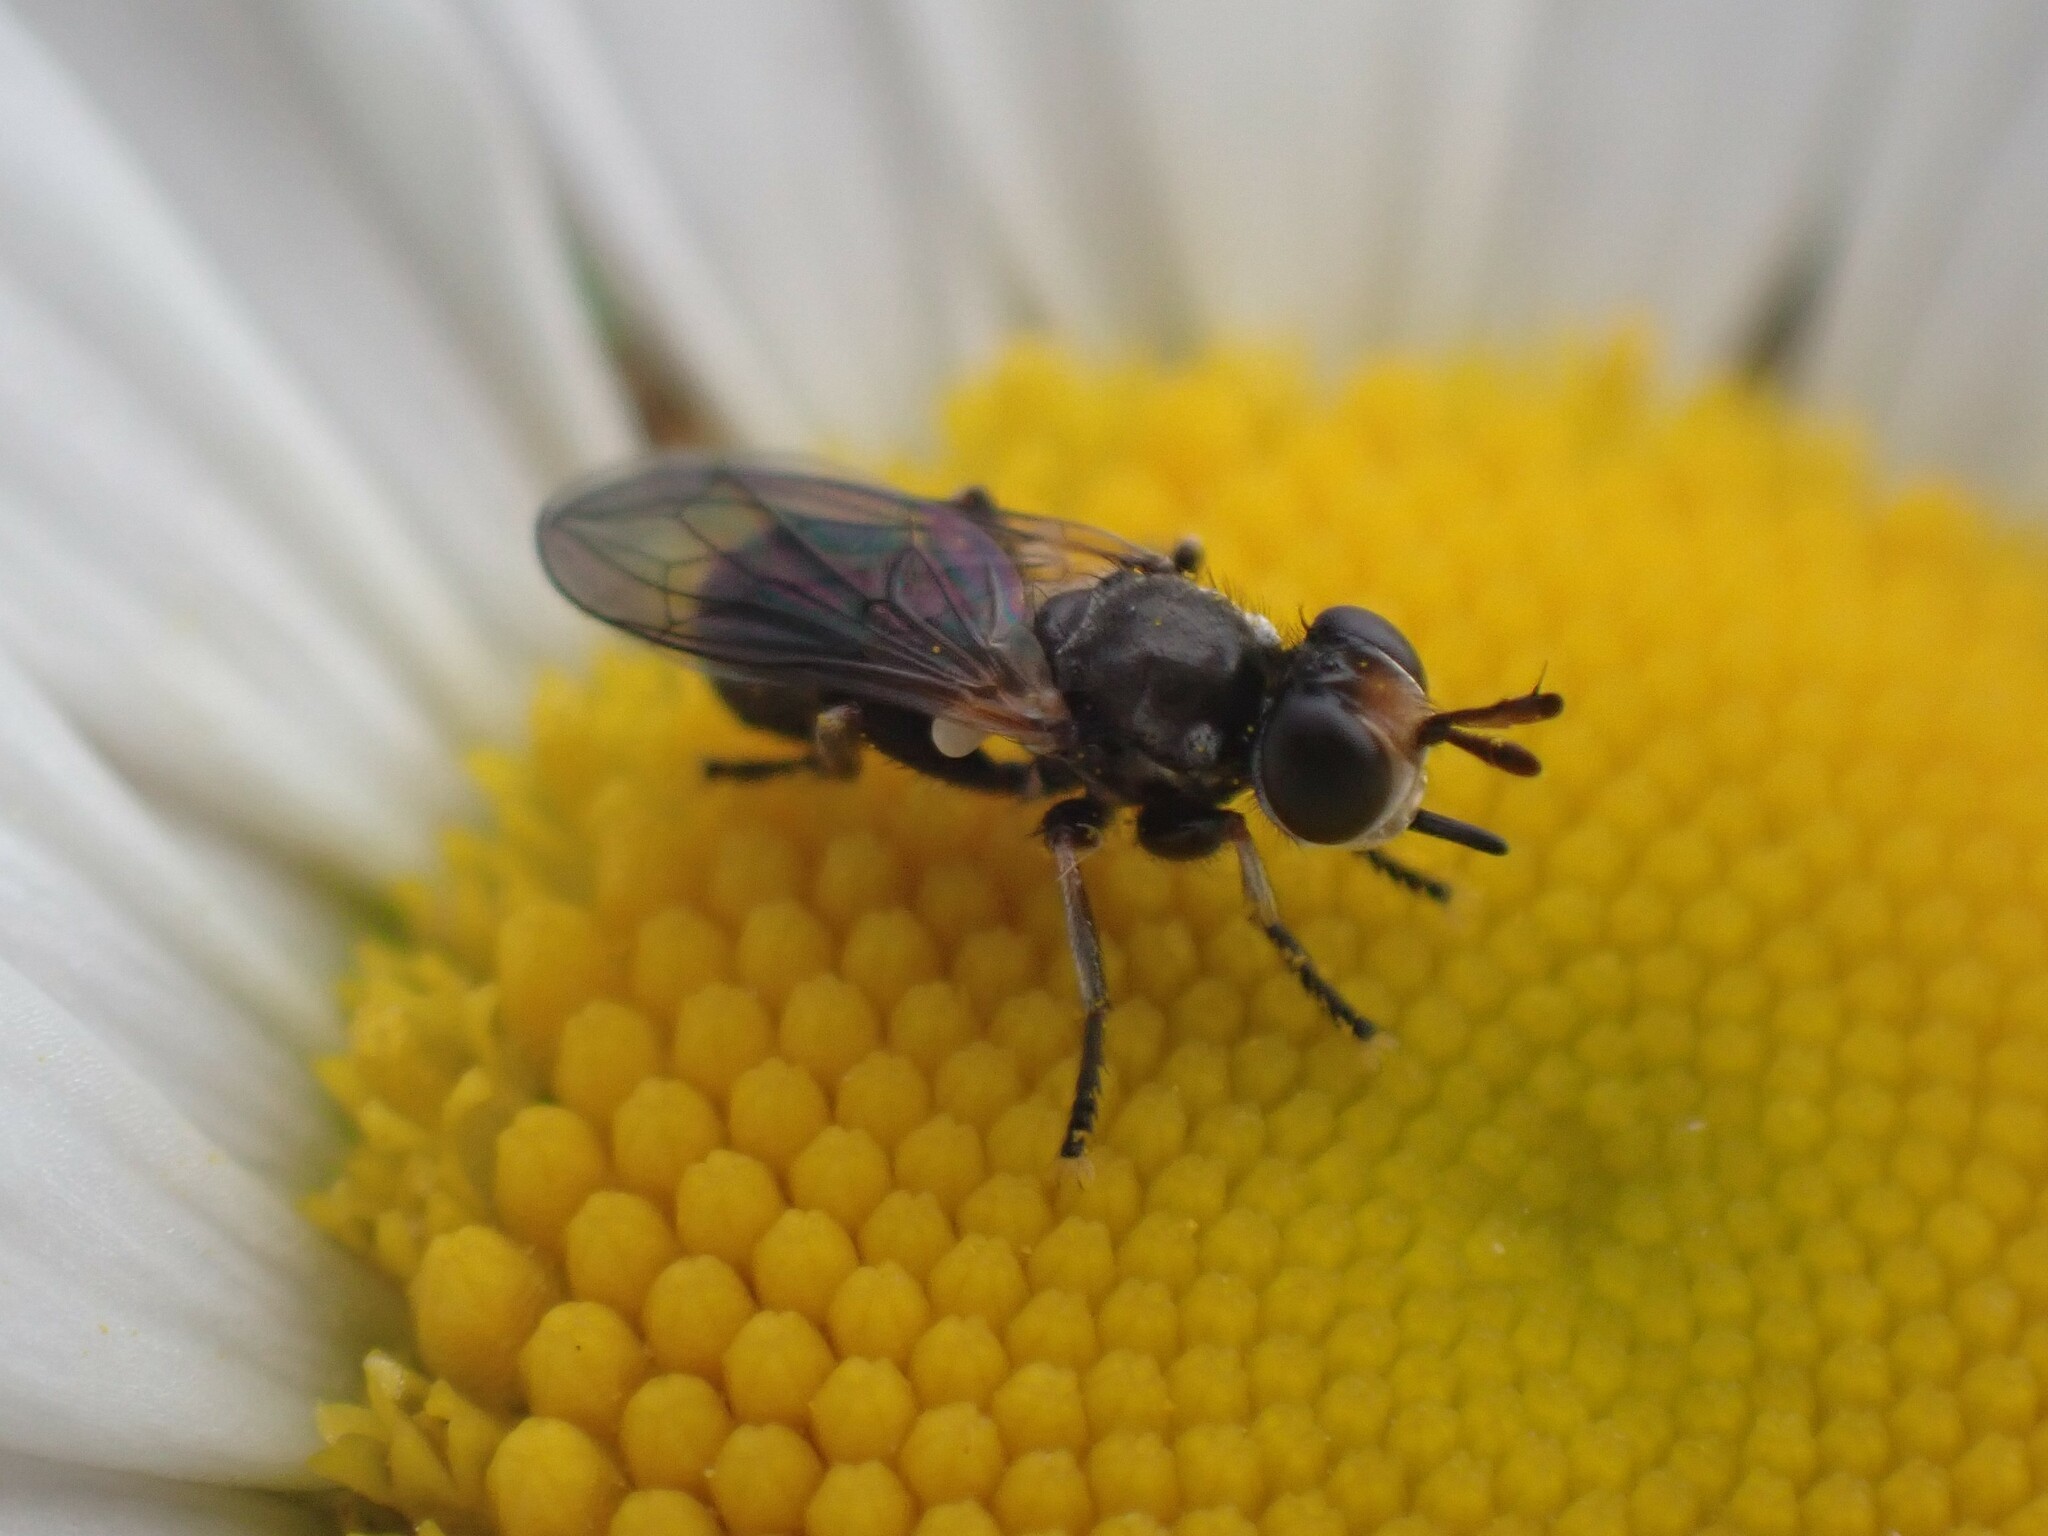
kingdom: Animalia
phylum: Arthropoda
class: Insecta
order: Diptera
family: Conopidae
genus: Thecophora
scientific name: Thecophora propinqua
